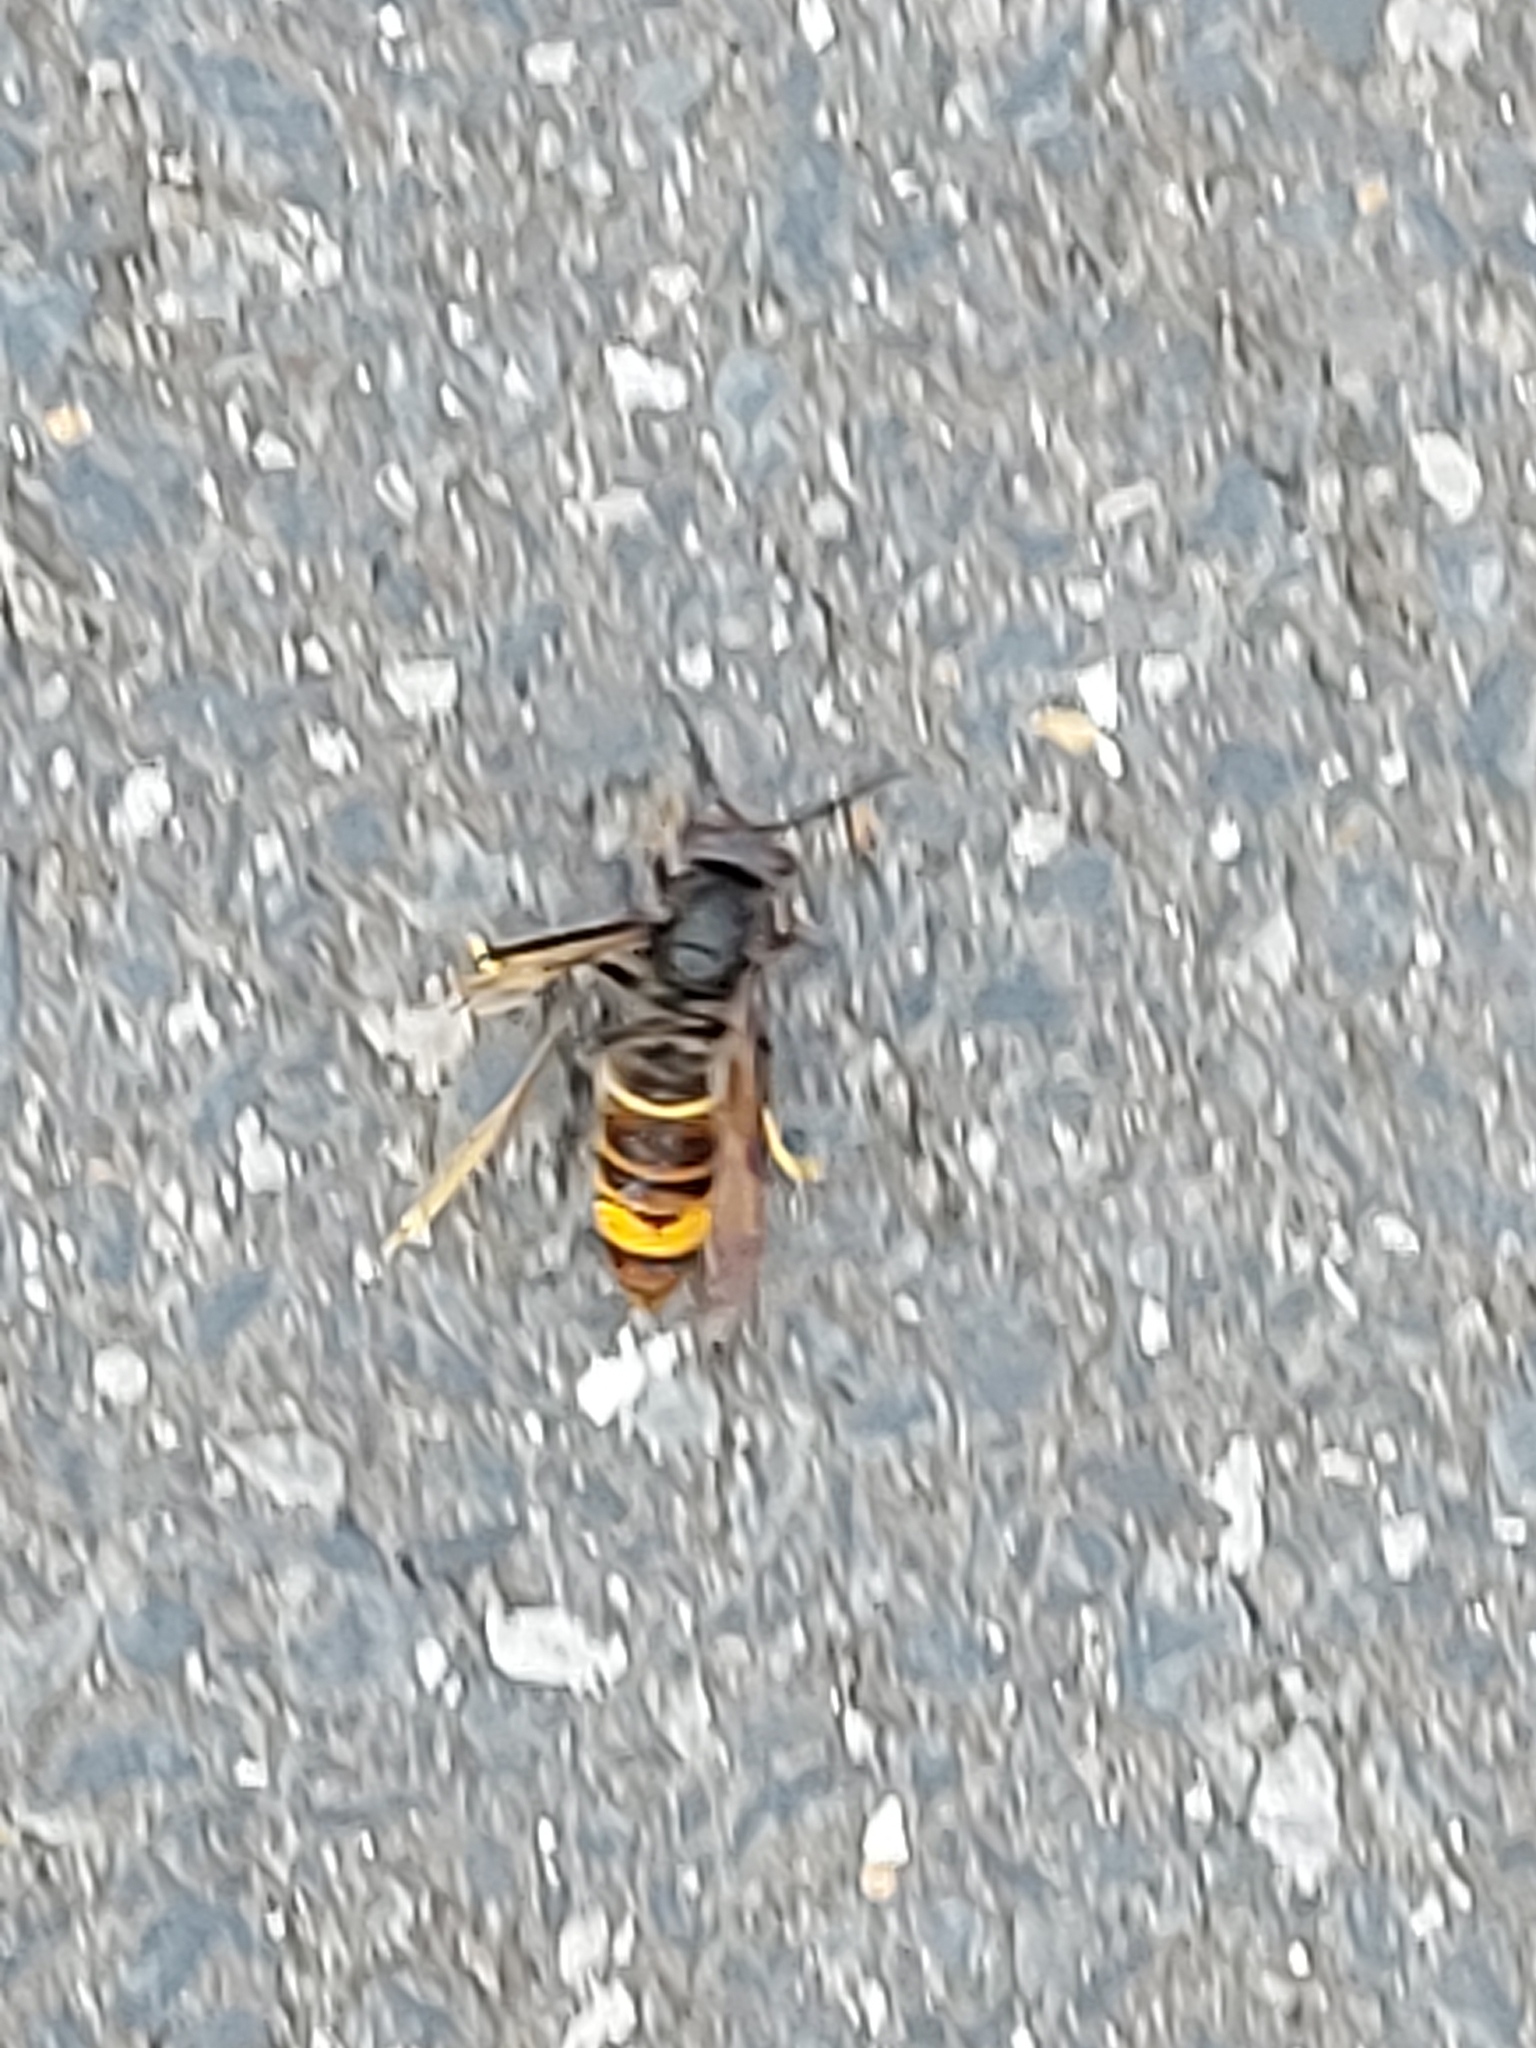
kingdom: Animalia
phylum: Arthropoda
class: Insecta
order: Hymenoptera
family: Vespidae
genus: Vespa
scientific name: Vespa velutina
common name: Asian hornet
